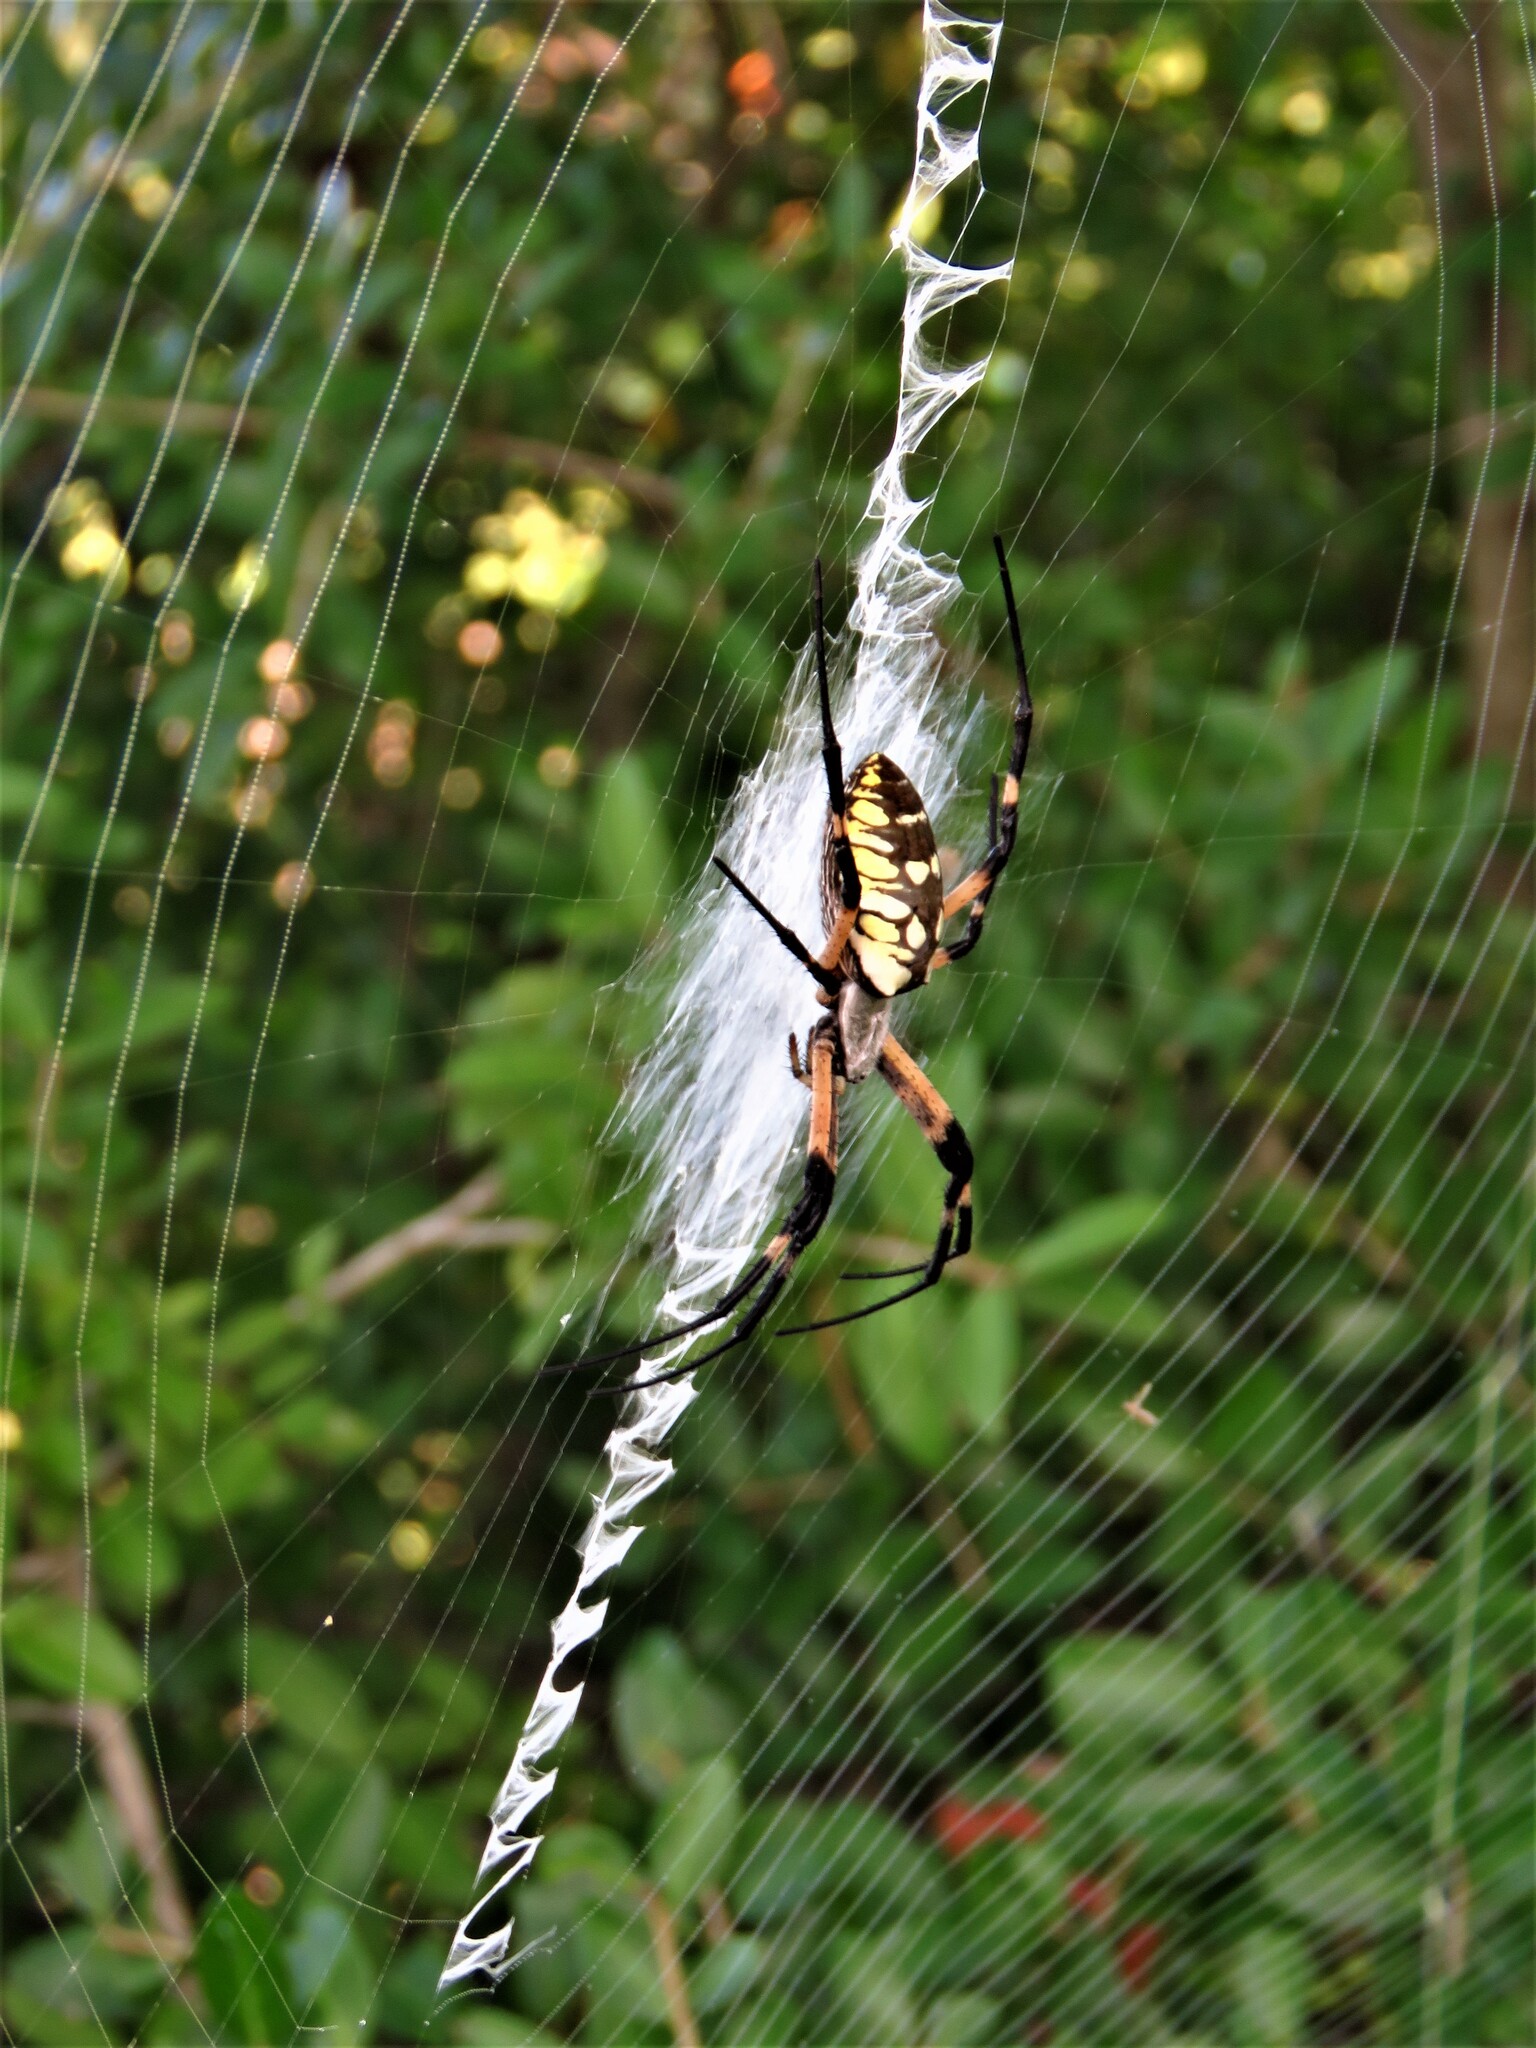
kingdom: Animalia
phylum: Arthropoda
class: Arachnida
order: Araneae
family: Araneidae
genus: Argiope
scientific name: Argiope aurantia
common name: Orb weavers
